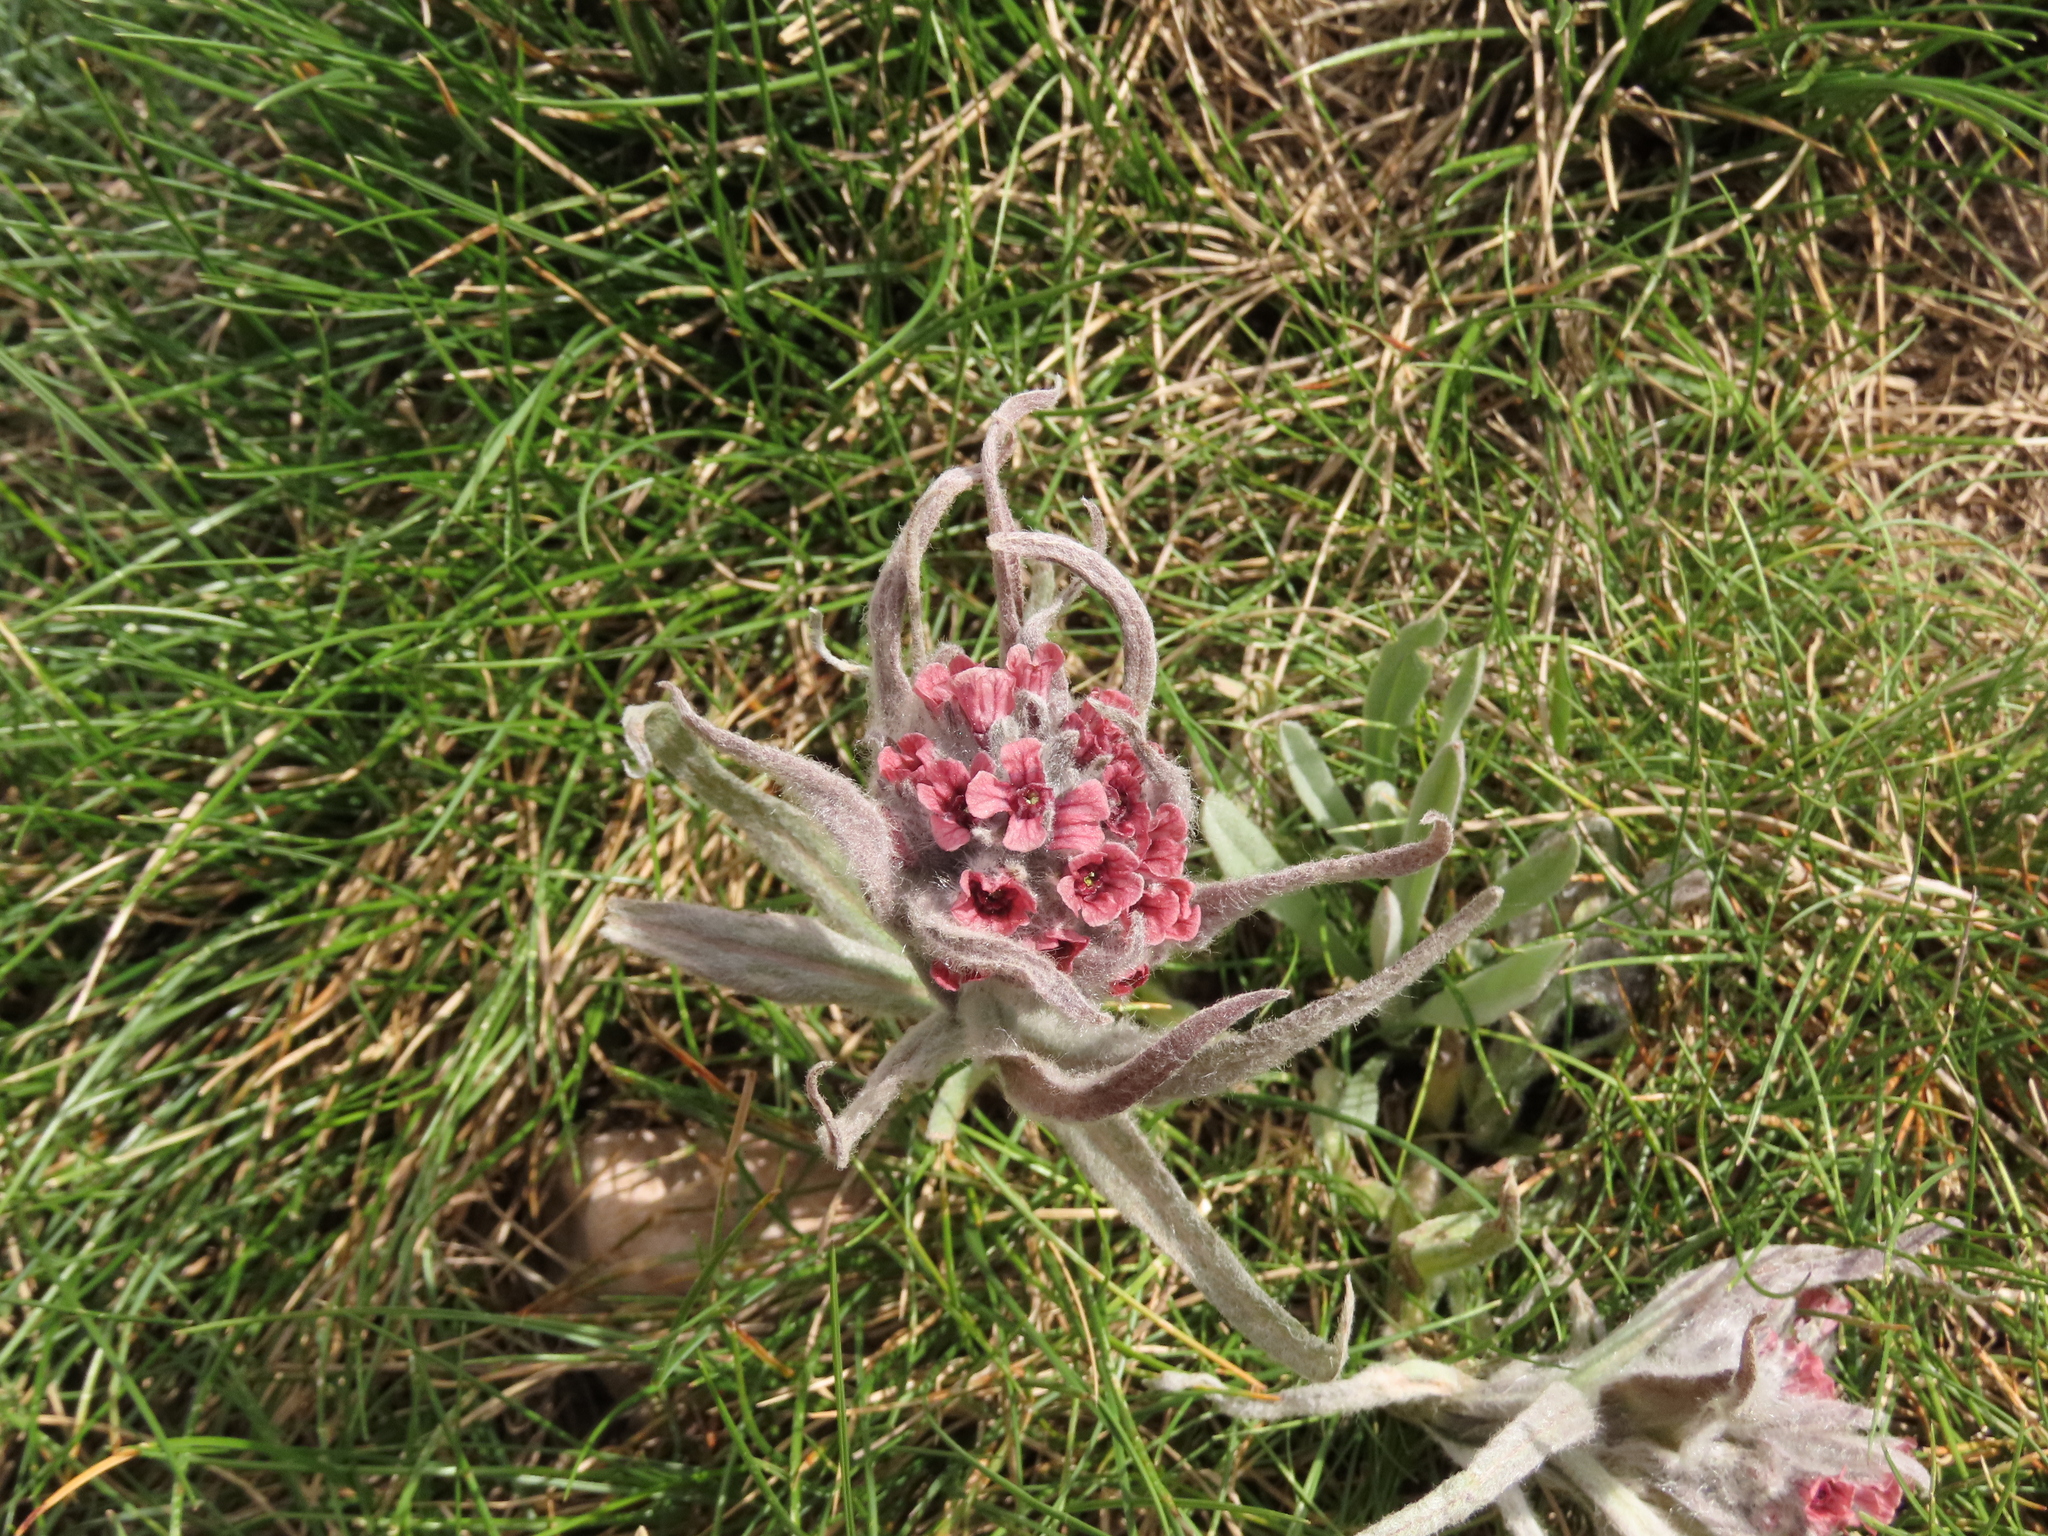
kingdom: Plantae
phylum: Tracheophyta
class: Magnoliopsida
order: Boraginales
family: Boraginaceae
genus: Rindera
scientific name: Rindera magellensis
